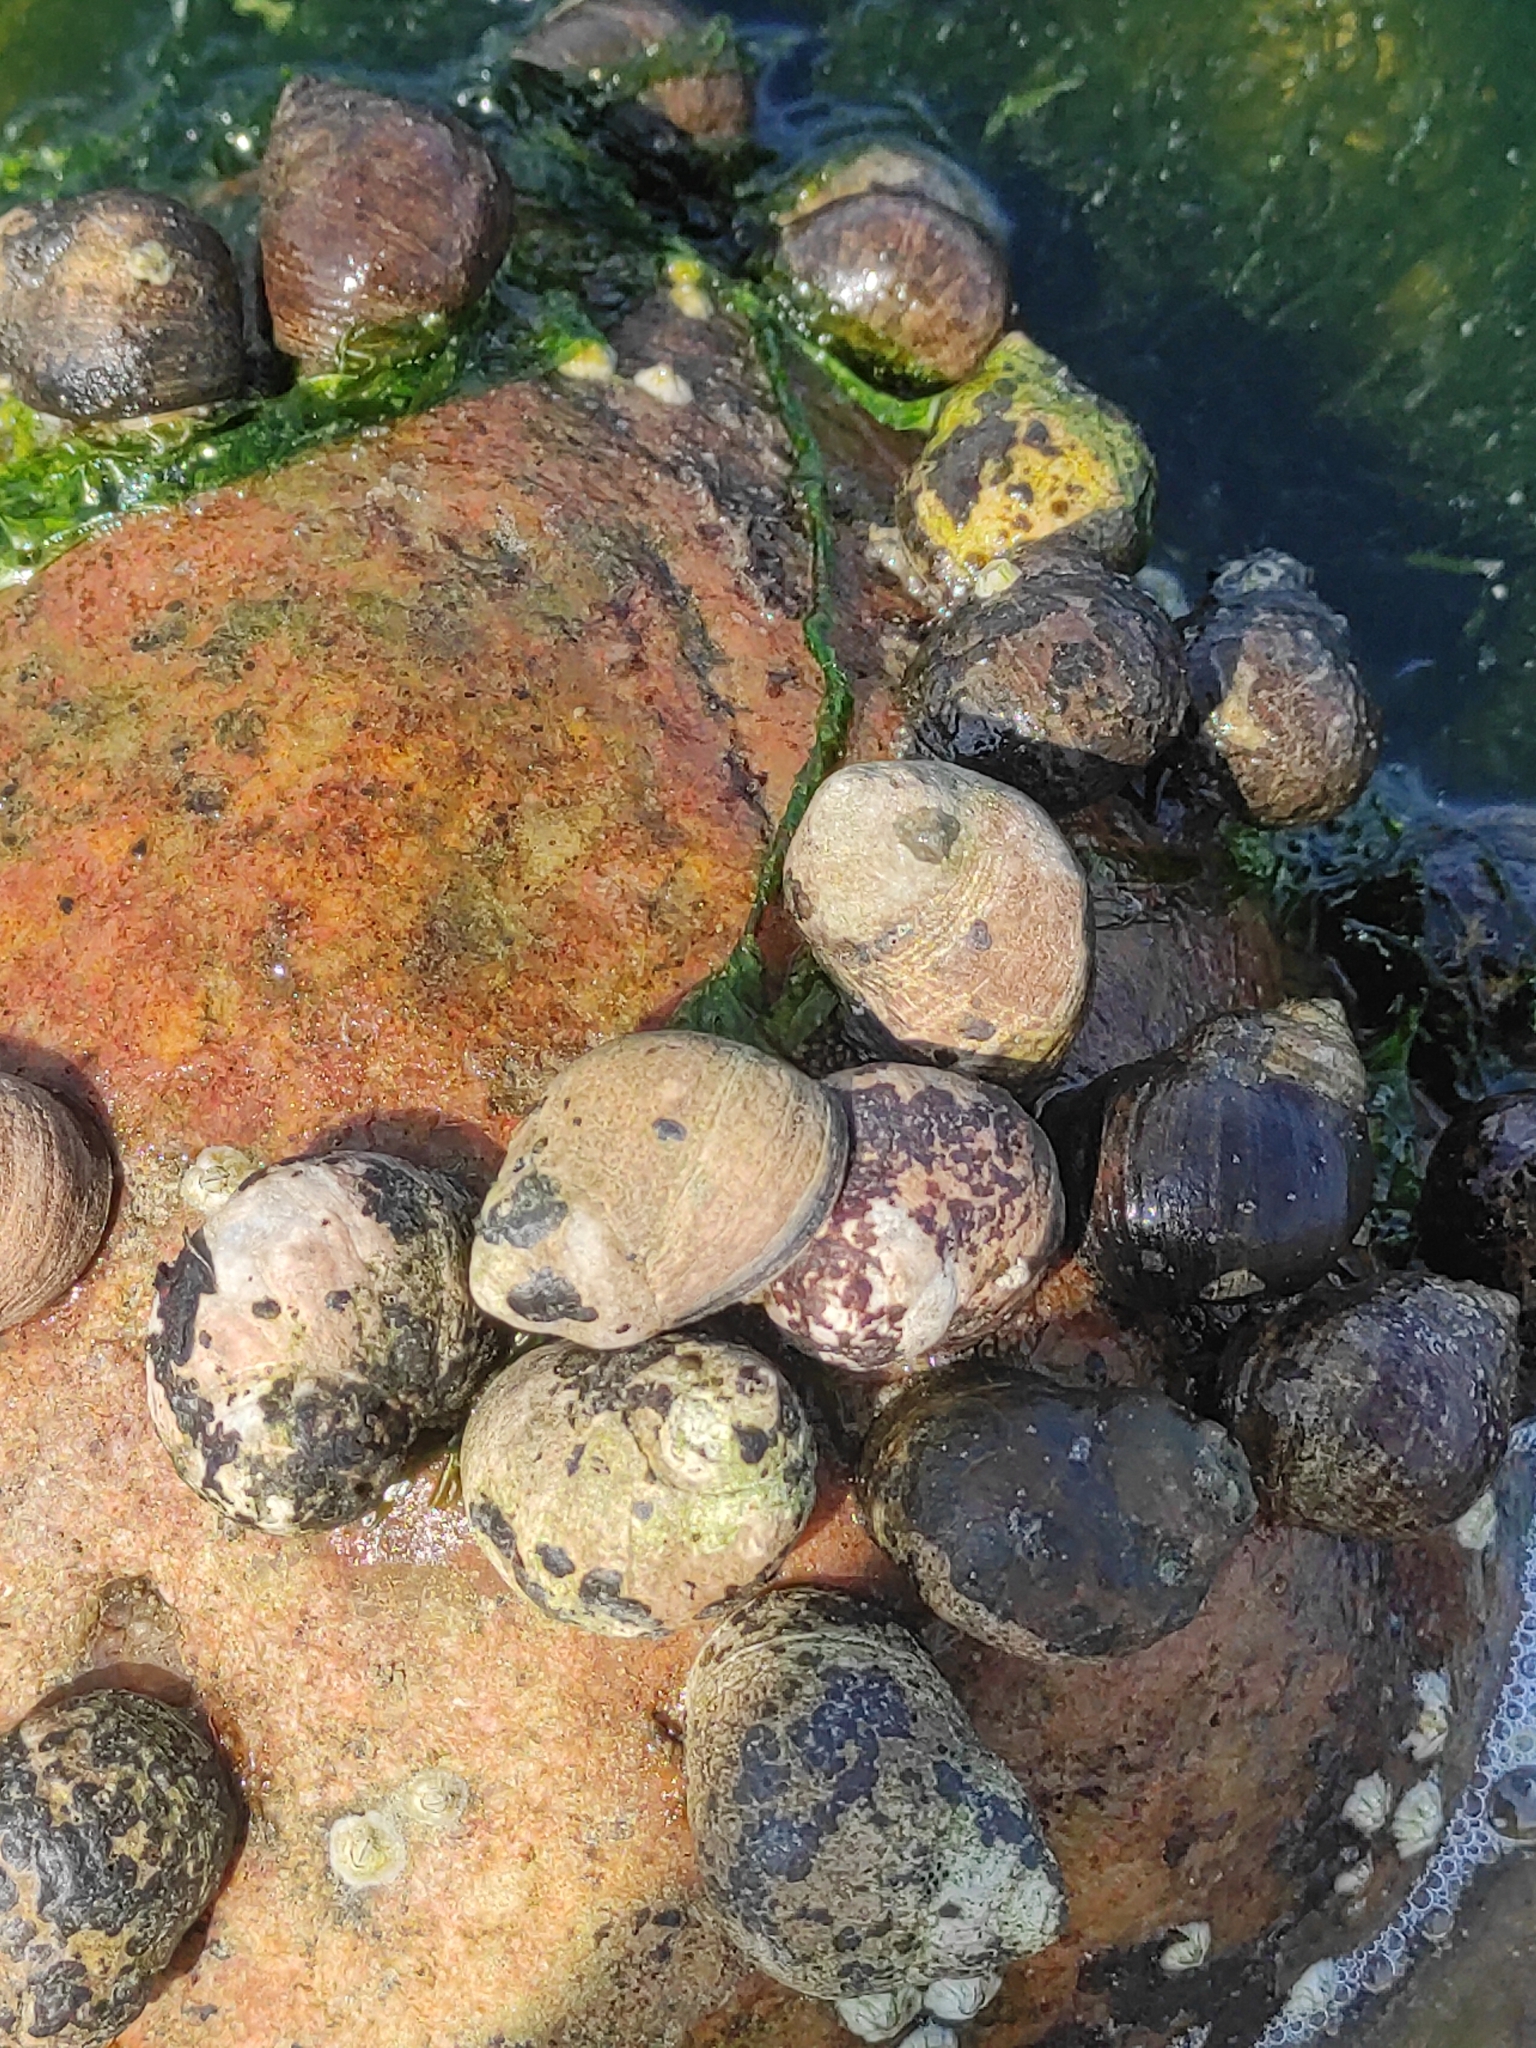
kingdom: Animalia
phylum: Mollusca
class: Gastropoda
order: Littorinimorpha
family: Littorinidae
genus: Littorina
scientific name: Littorina littorea
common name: Common periwinkle
